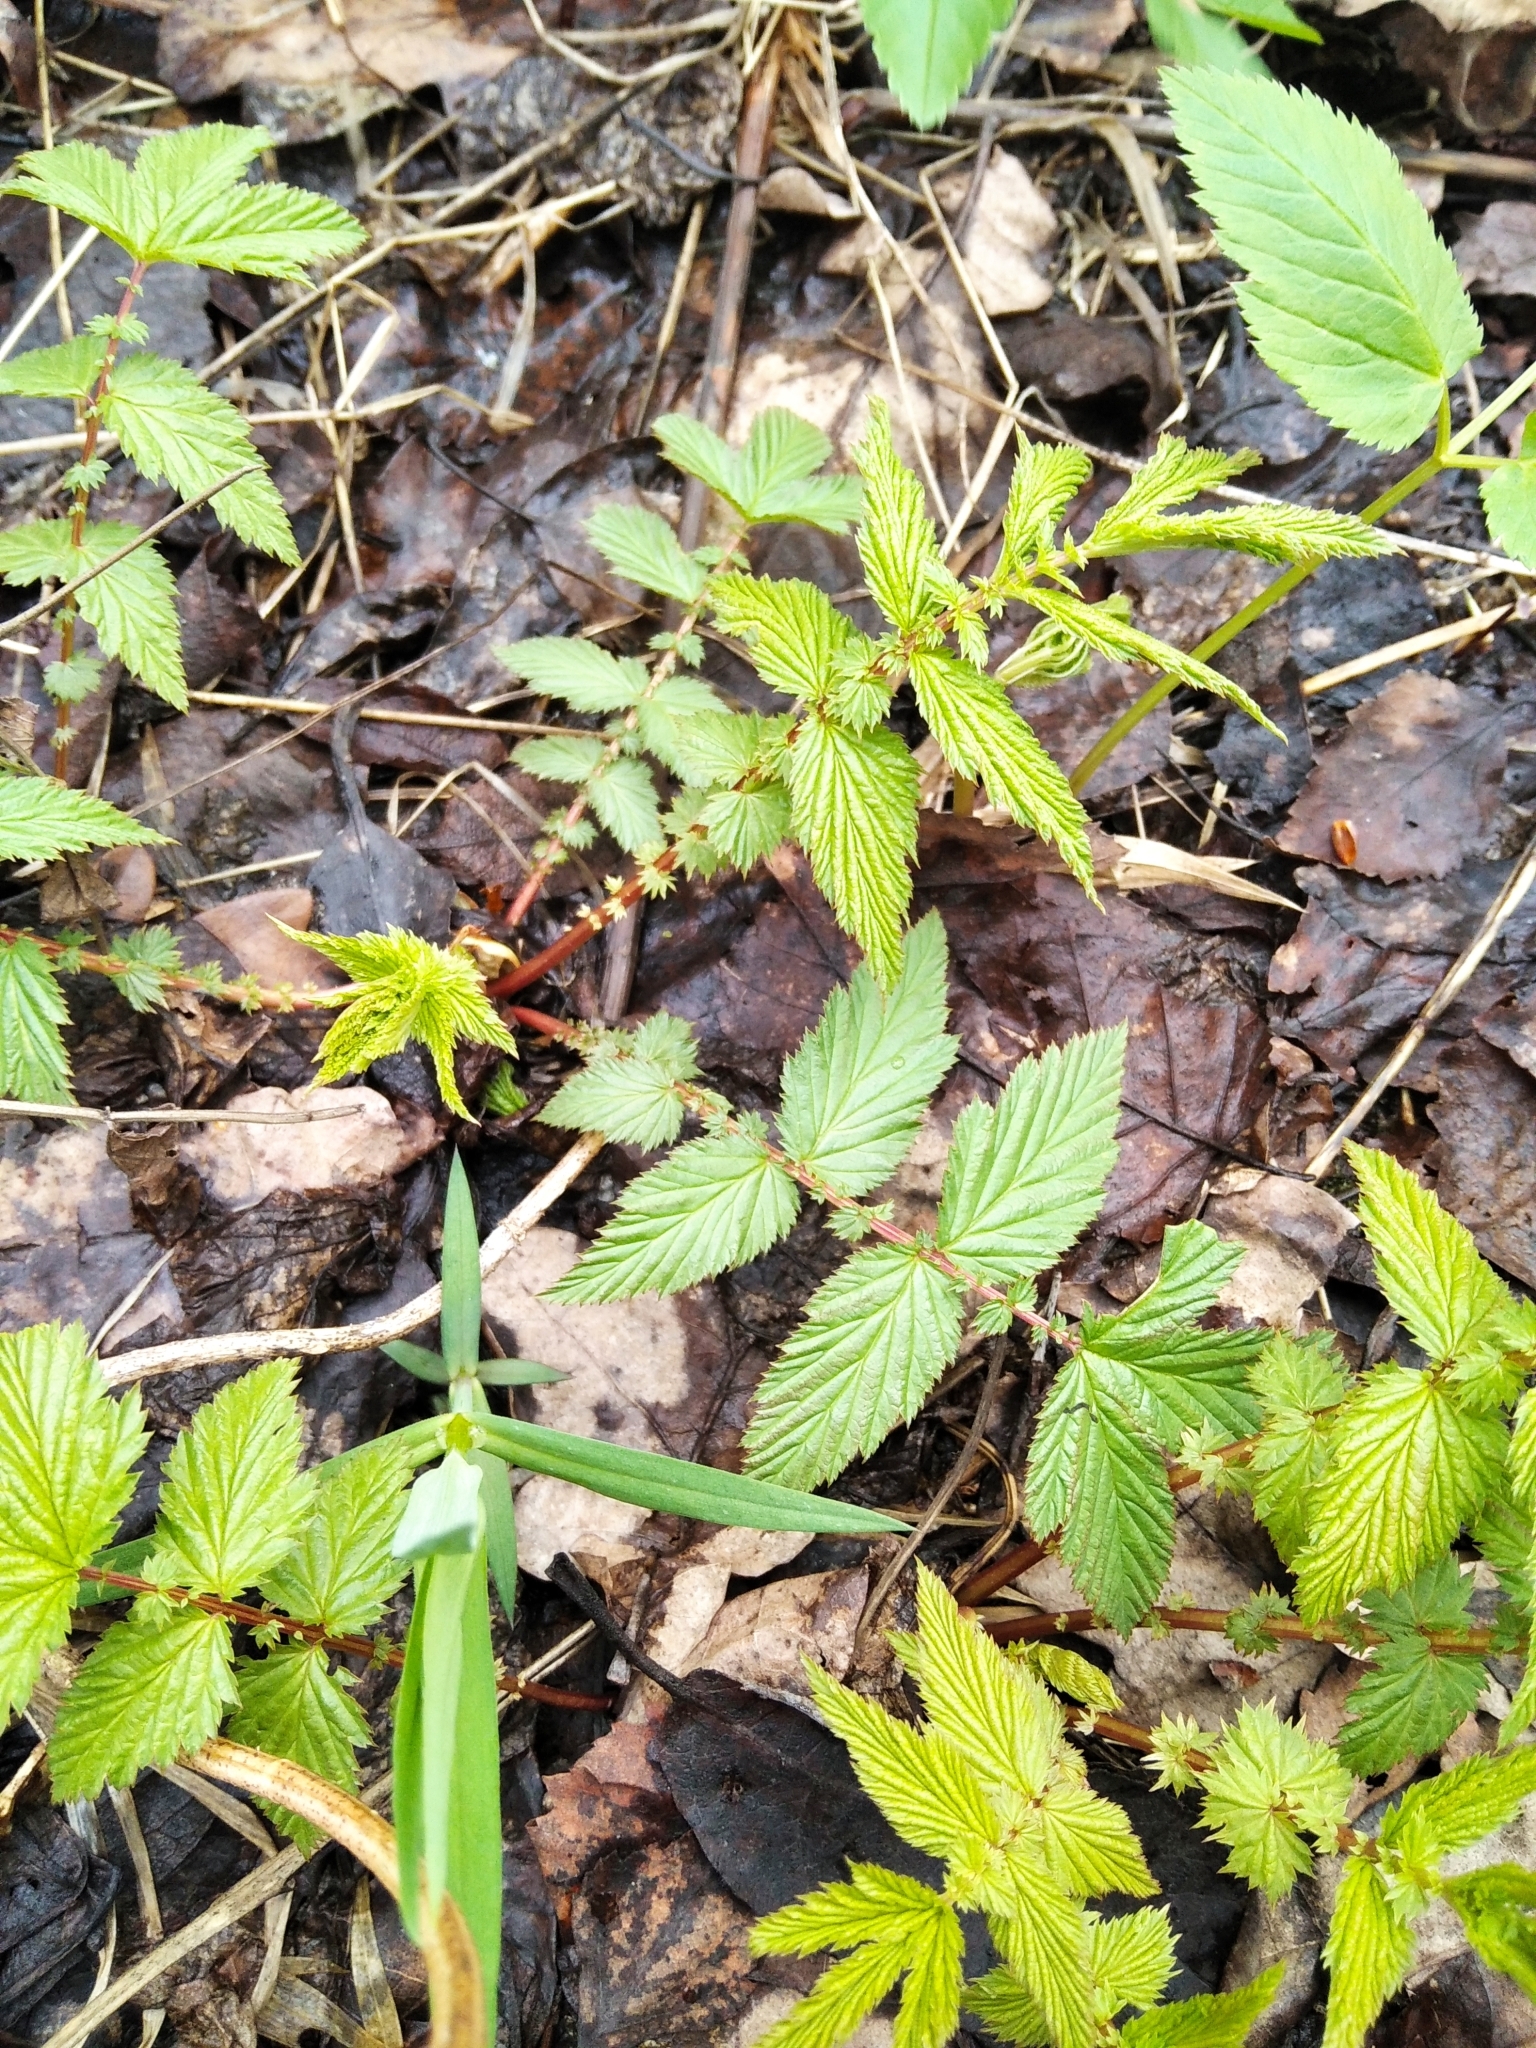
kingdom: Plantae
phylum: Tracheophyta
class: Magnoliopsida
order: Rosales
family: Rosaceae
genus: Filipendula
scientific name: Filipendula ulmaria
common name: Meadowsweet
